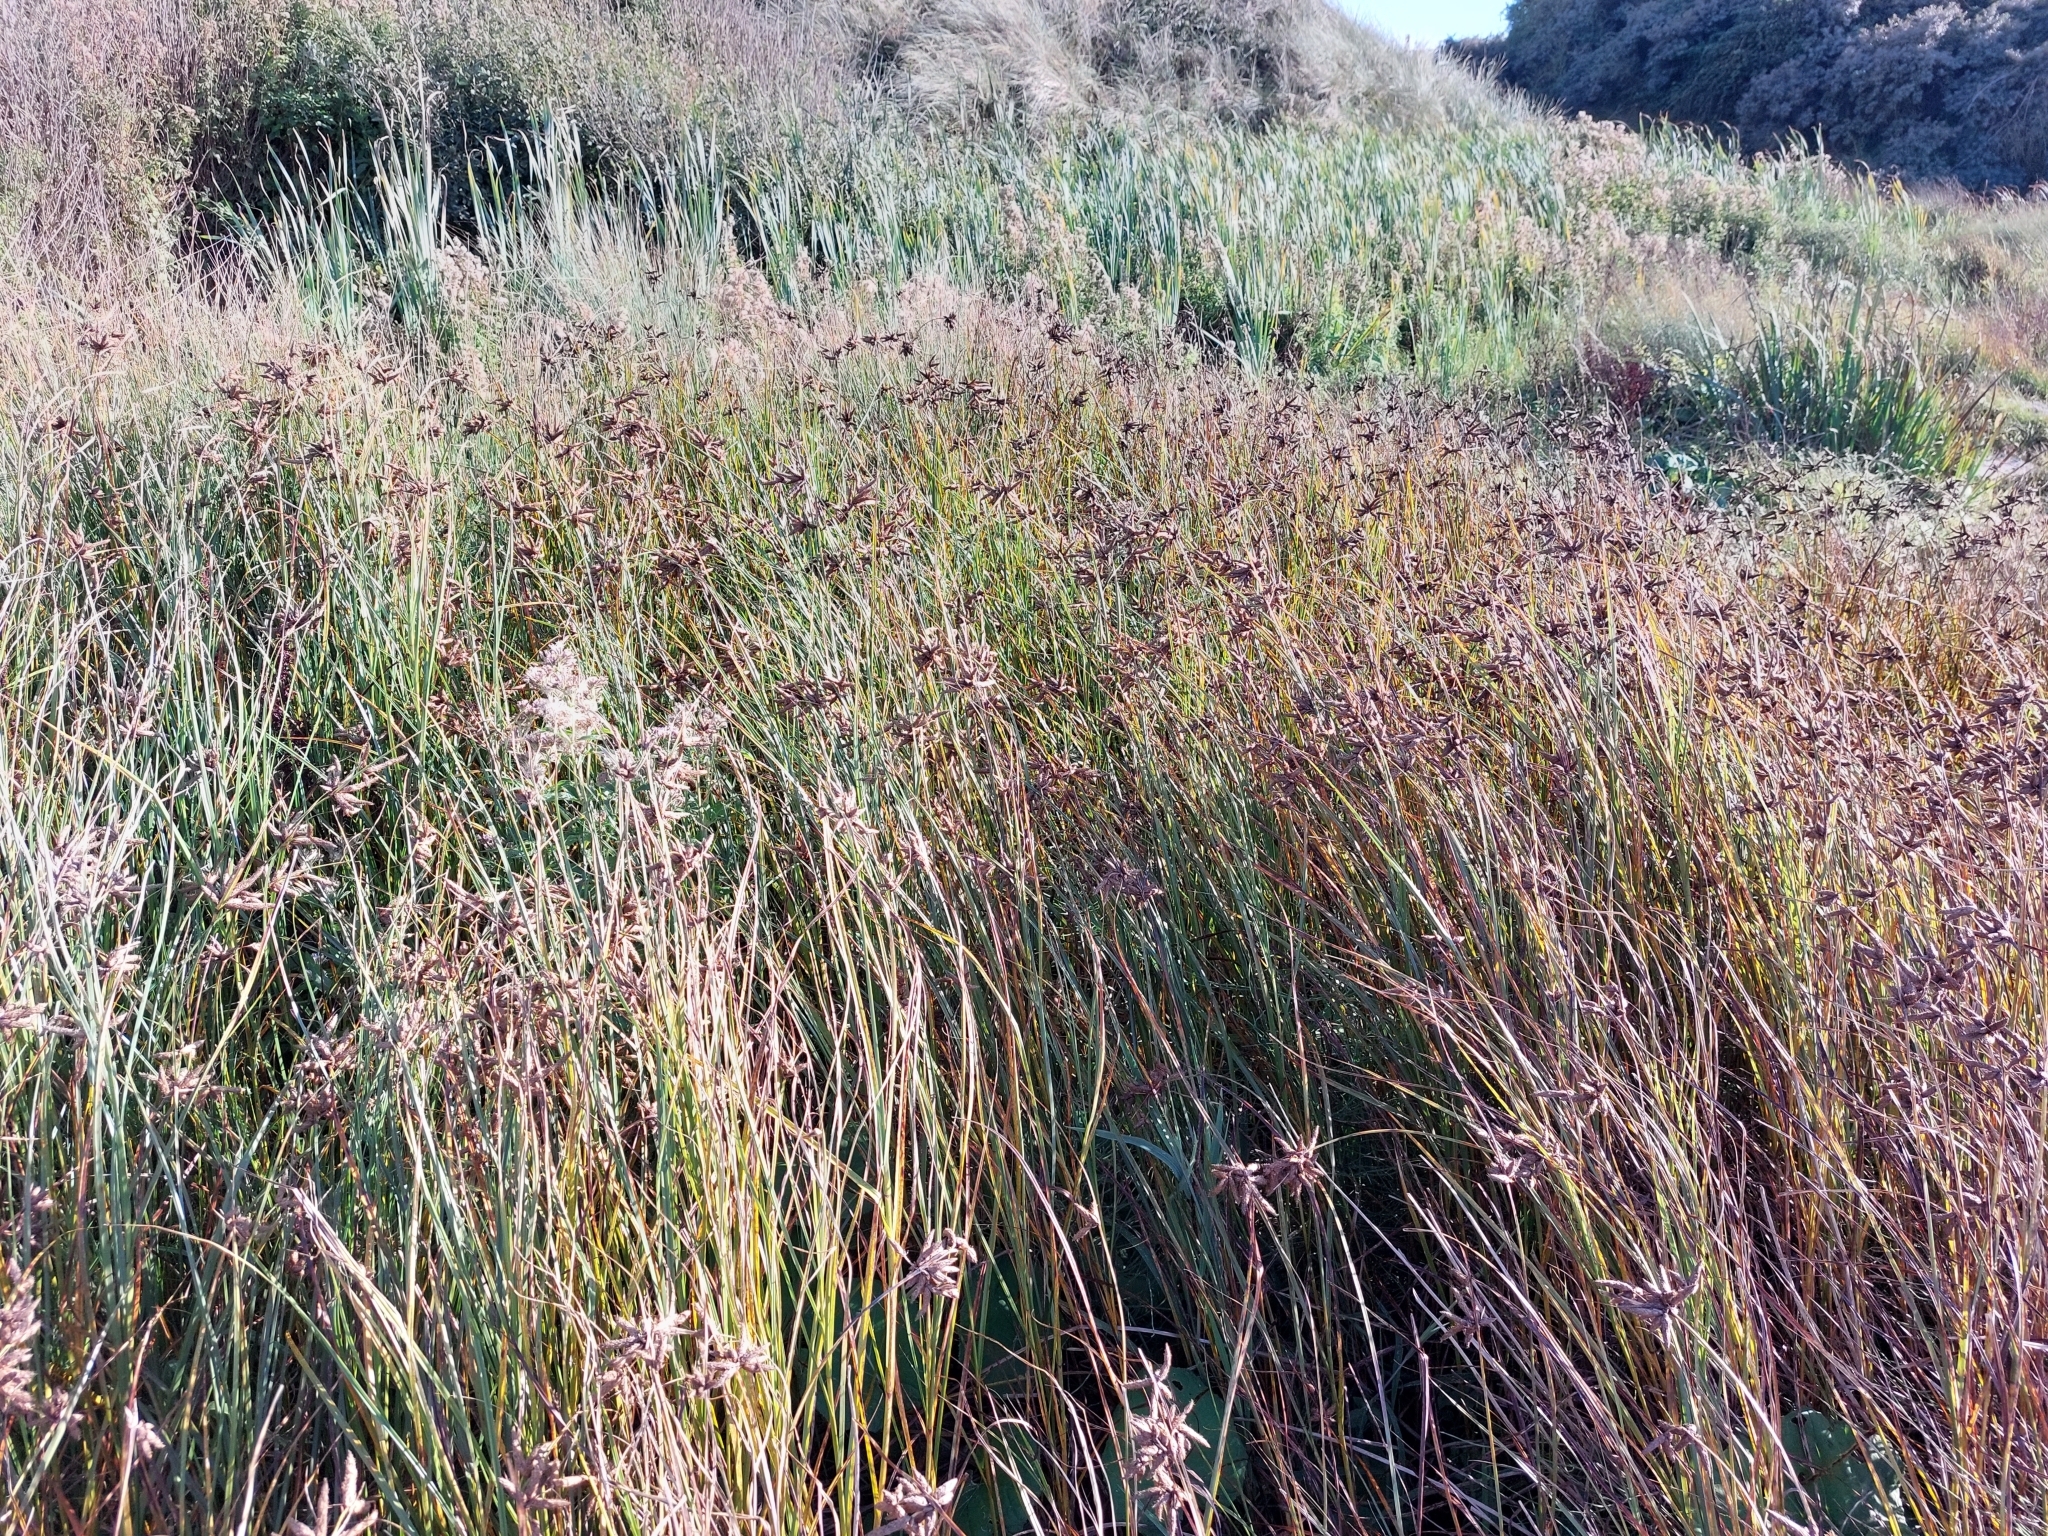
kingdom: Plantae
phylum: Tracheophyta
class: Liliopsida
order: Poales
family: Cyperaceae
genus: Bolboschoenus
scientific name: Bolboschoenus maritimus
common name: Sea club-rush
